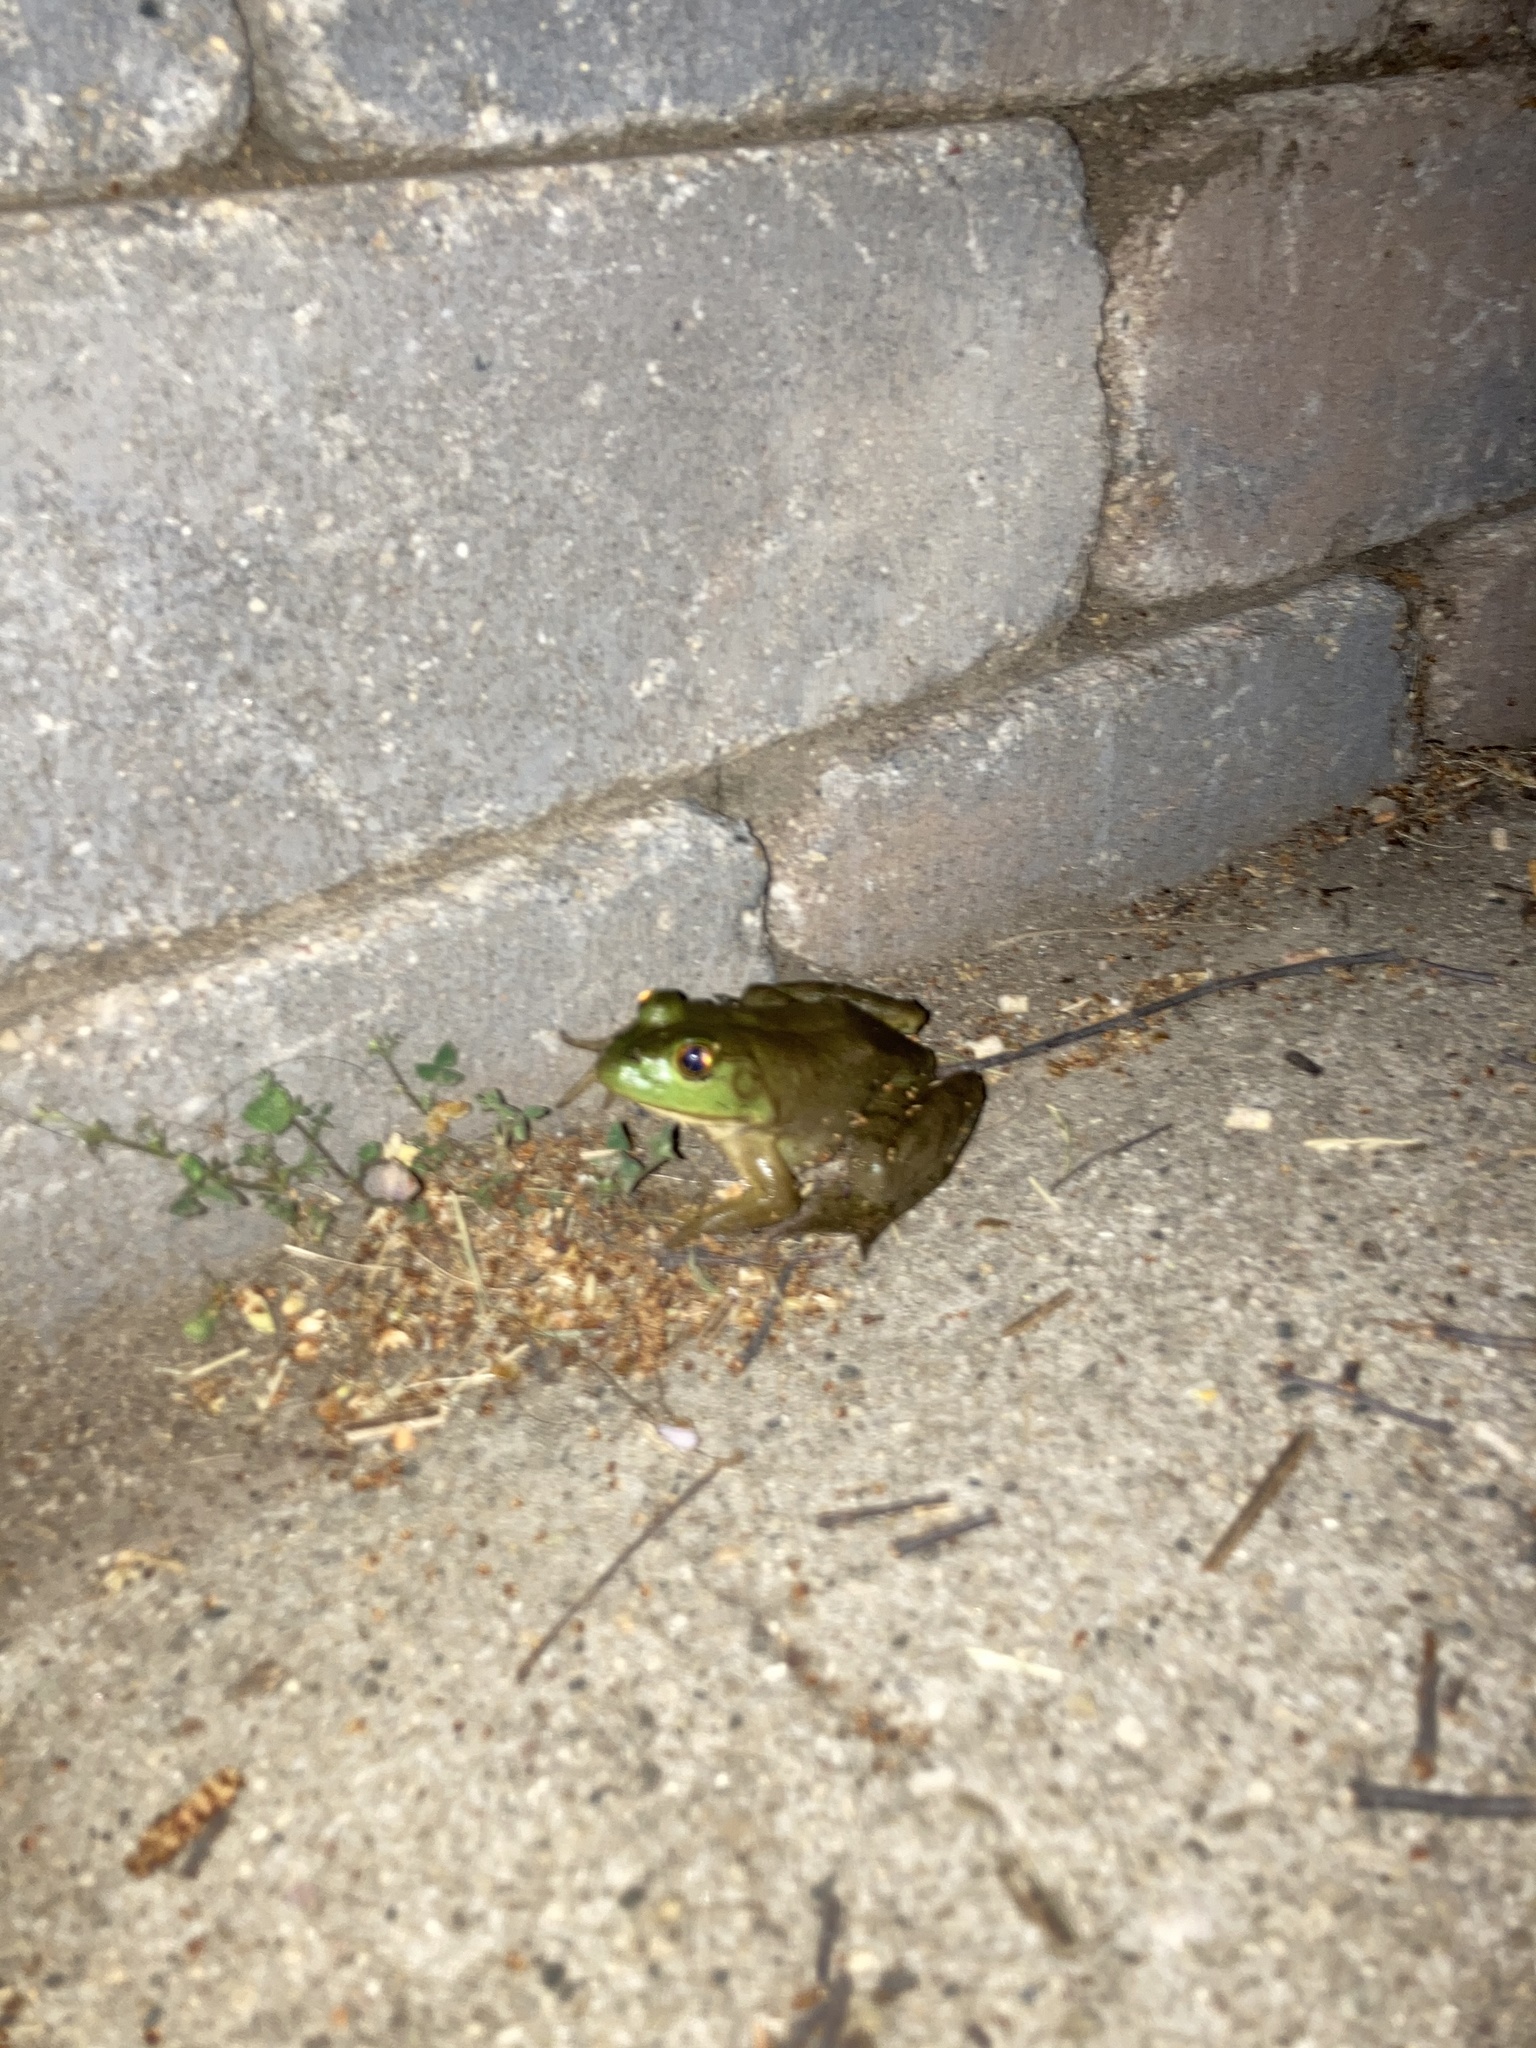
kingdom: Animalia
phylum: Chordata
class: Amphibia
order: Anura
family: Ranidae
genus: Lithobates
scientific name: Lithobates catesbeianus
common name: American bullfrog
